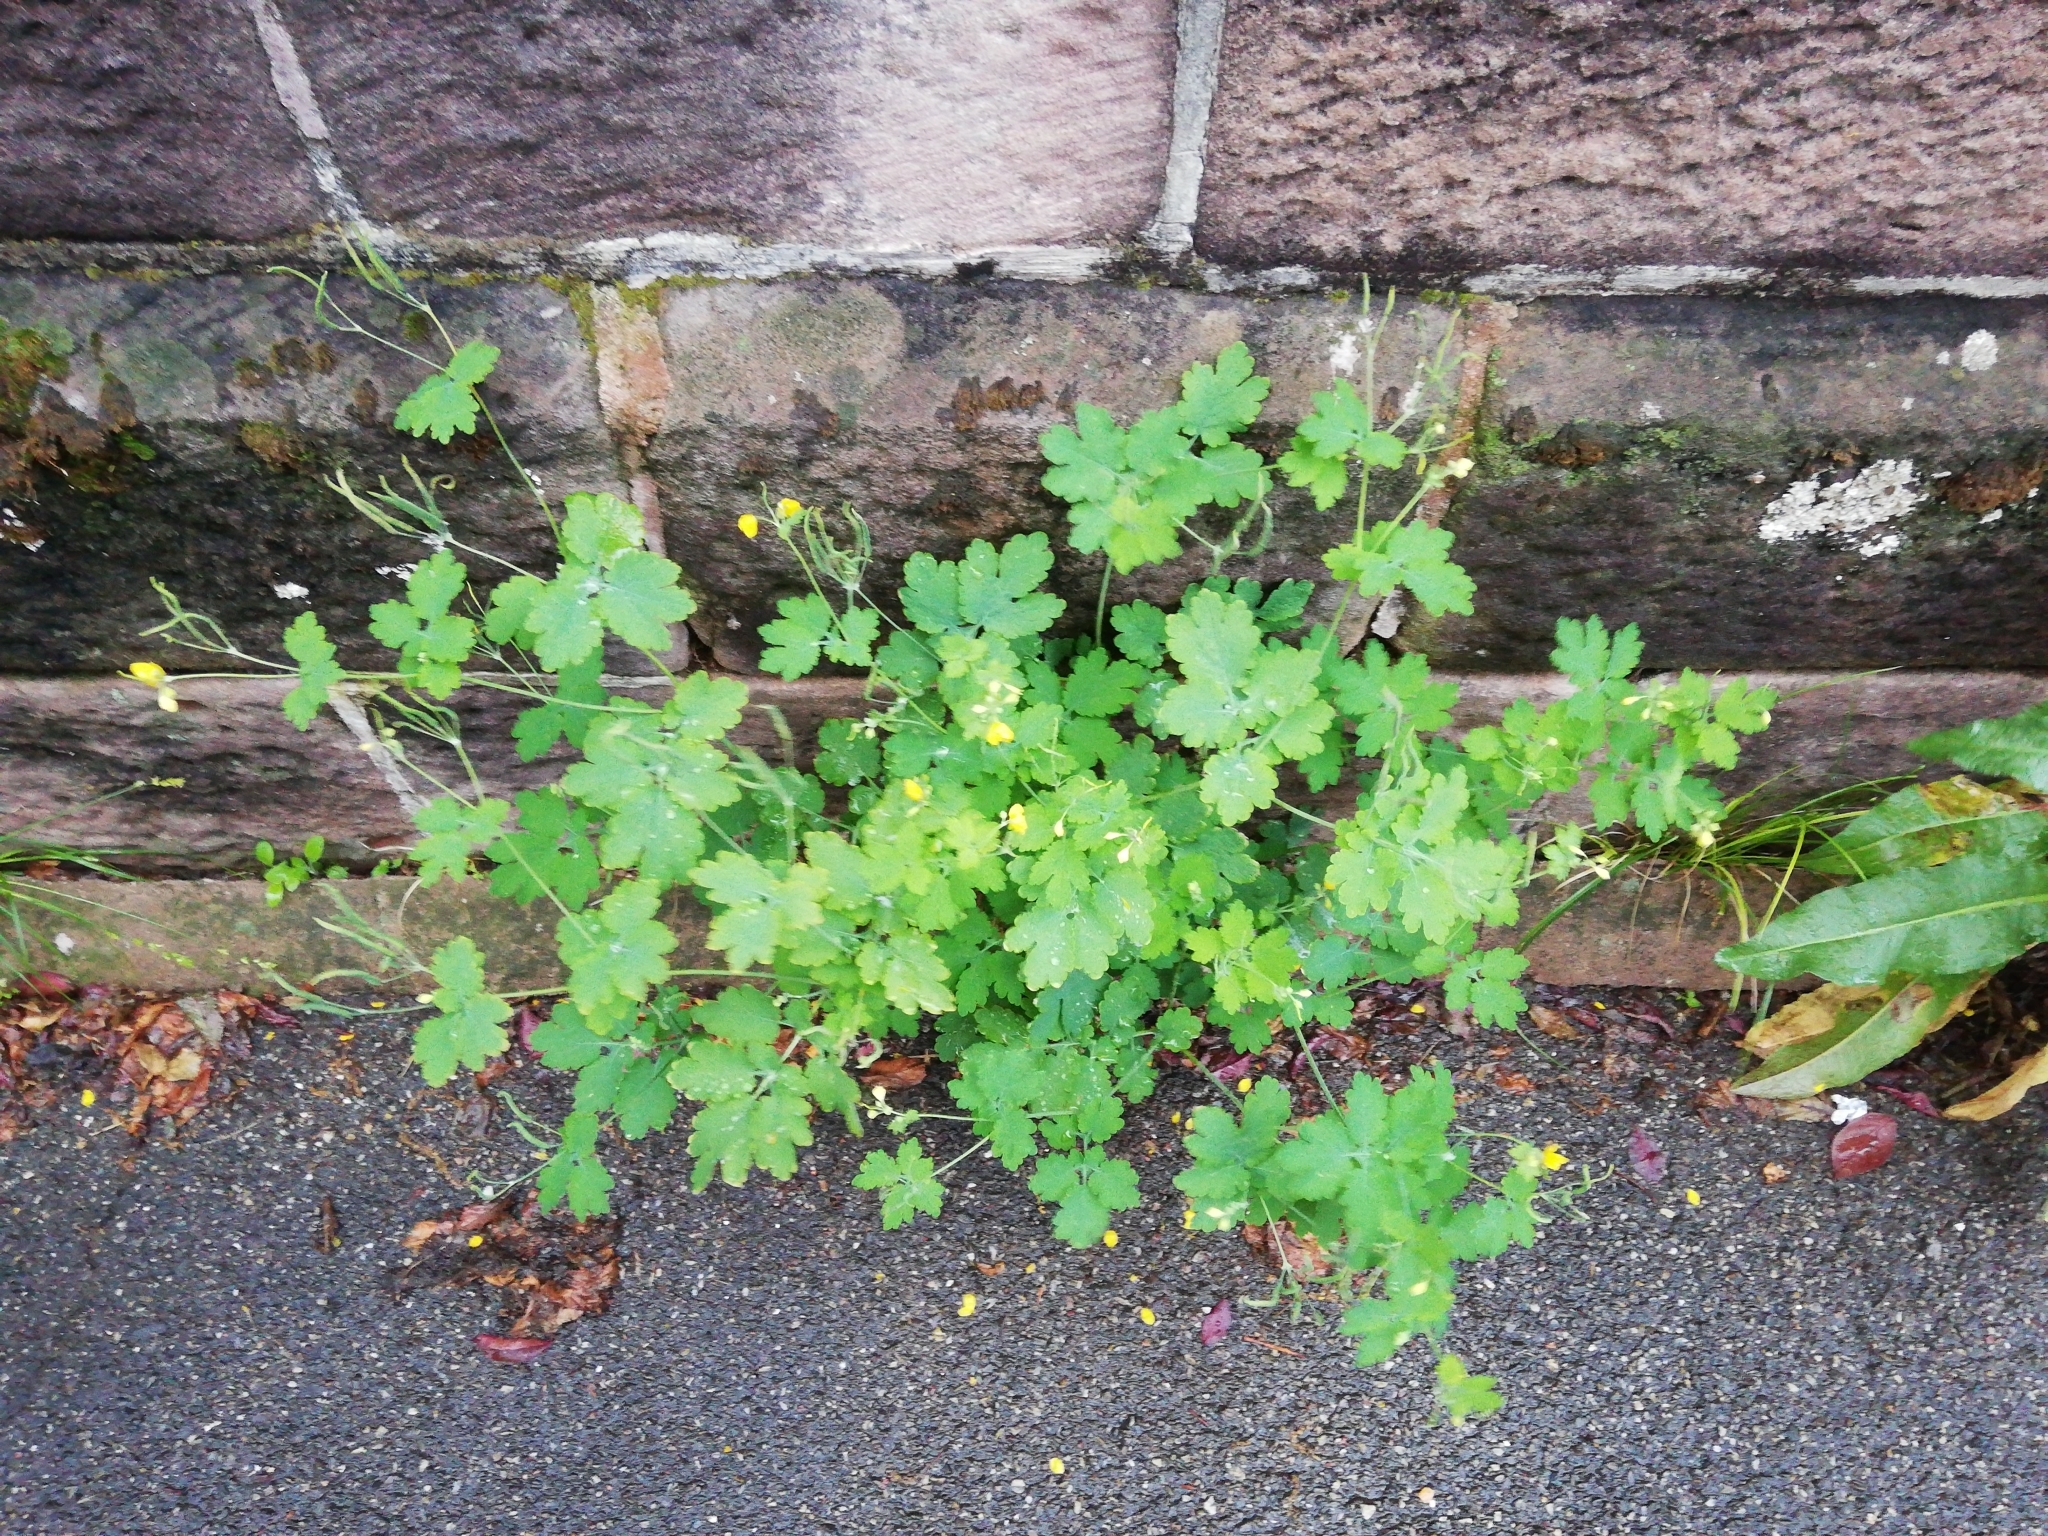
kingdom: Plantae
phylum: Tracheophyta
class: Magnoliopsida
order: Ranunculales
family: Papaveraceae
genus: Chelidonium
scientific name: Chelidonium majus
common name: Greater celandine
